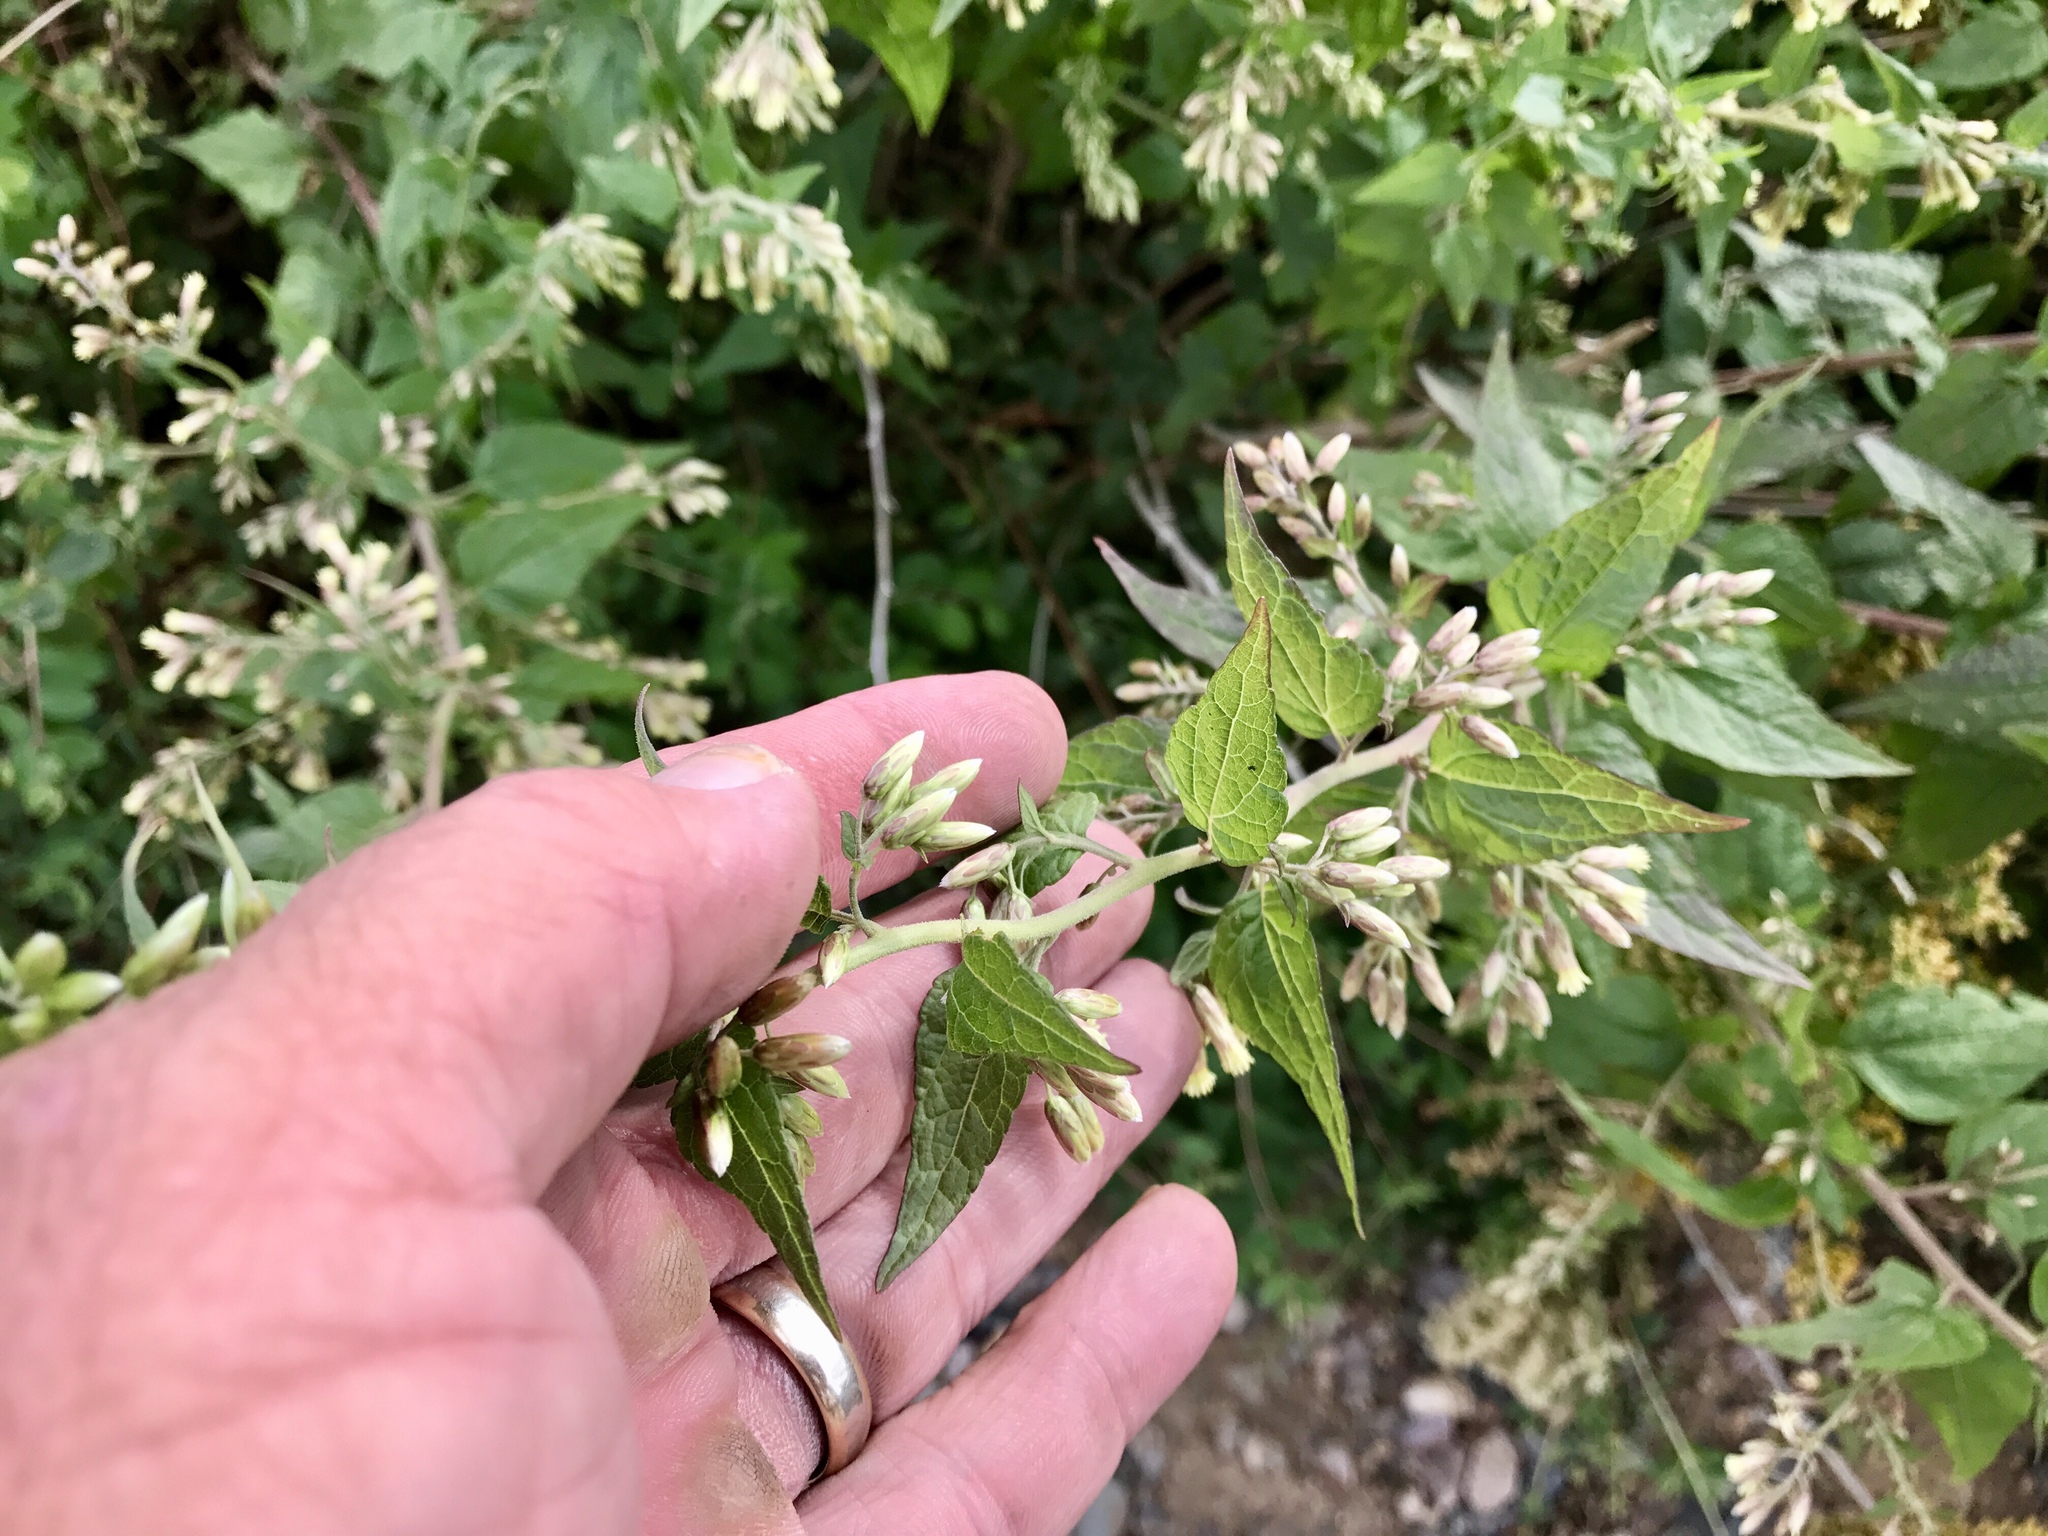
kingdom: Plantae
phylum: Tracheophyta
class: Magnoliopsida
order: Asterales
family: Asteraceae
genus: Brickellia
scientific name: Brickellia rusbyi
